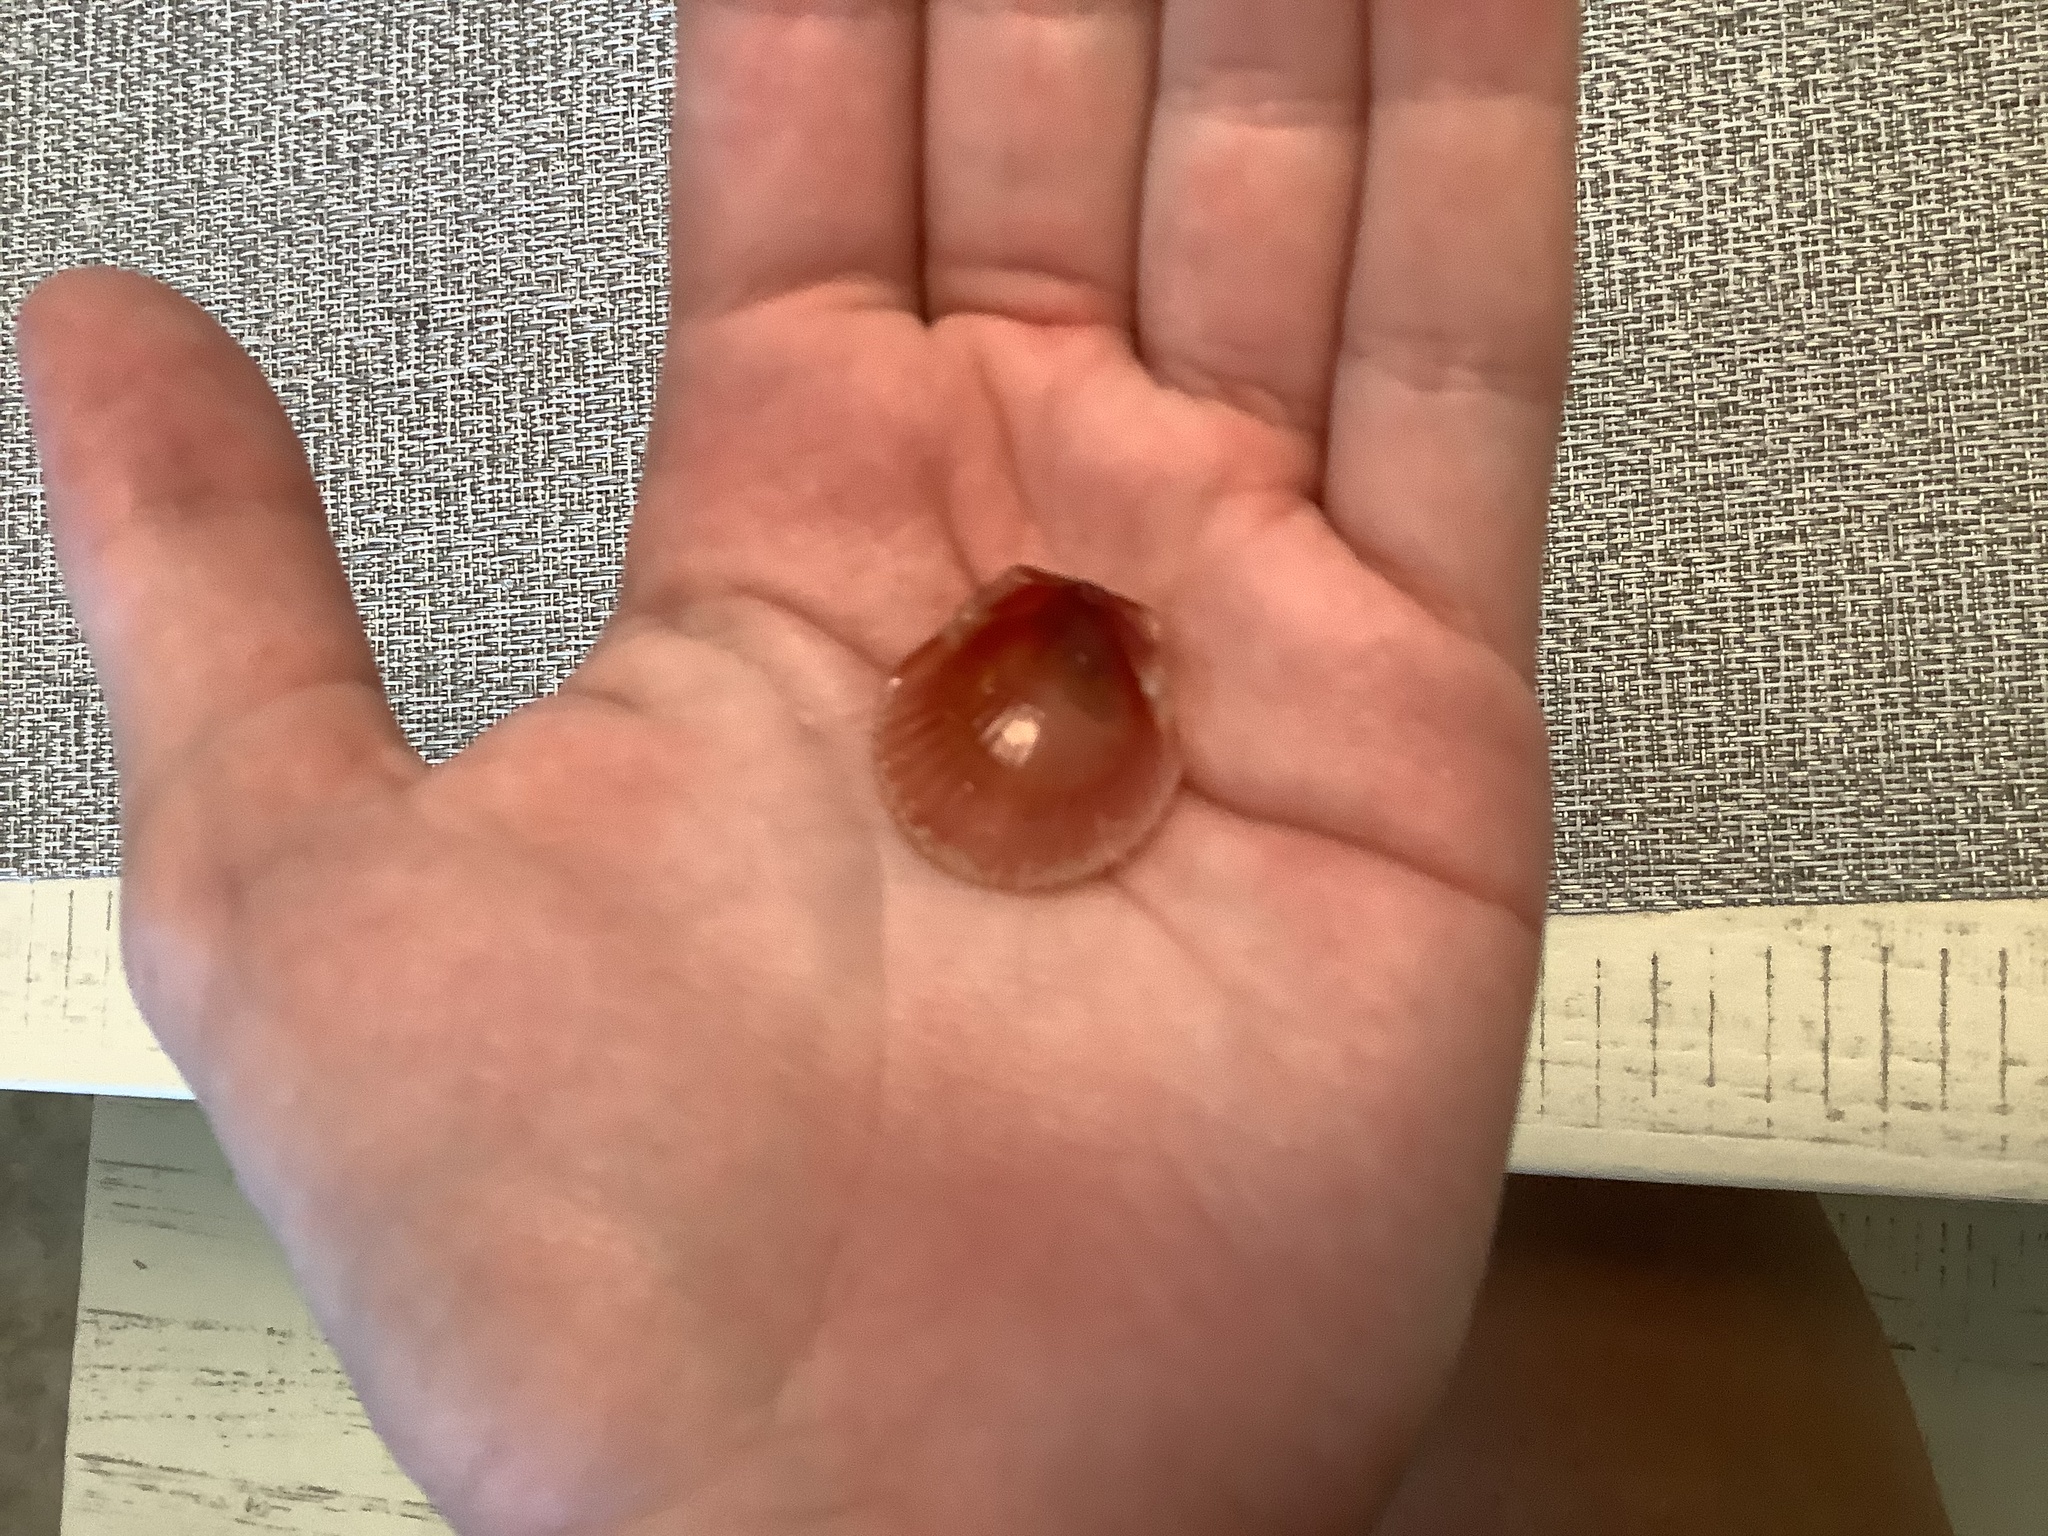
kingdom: Animalia
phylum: Mollusca
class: Bivalvia
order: Pectinida
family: Pectinidae
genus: Argopecten
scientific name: Argopecten irradians
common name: Atlantic bay scallop
